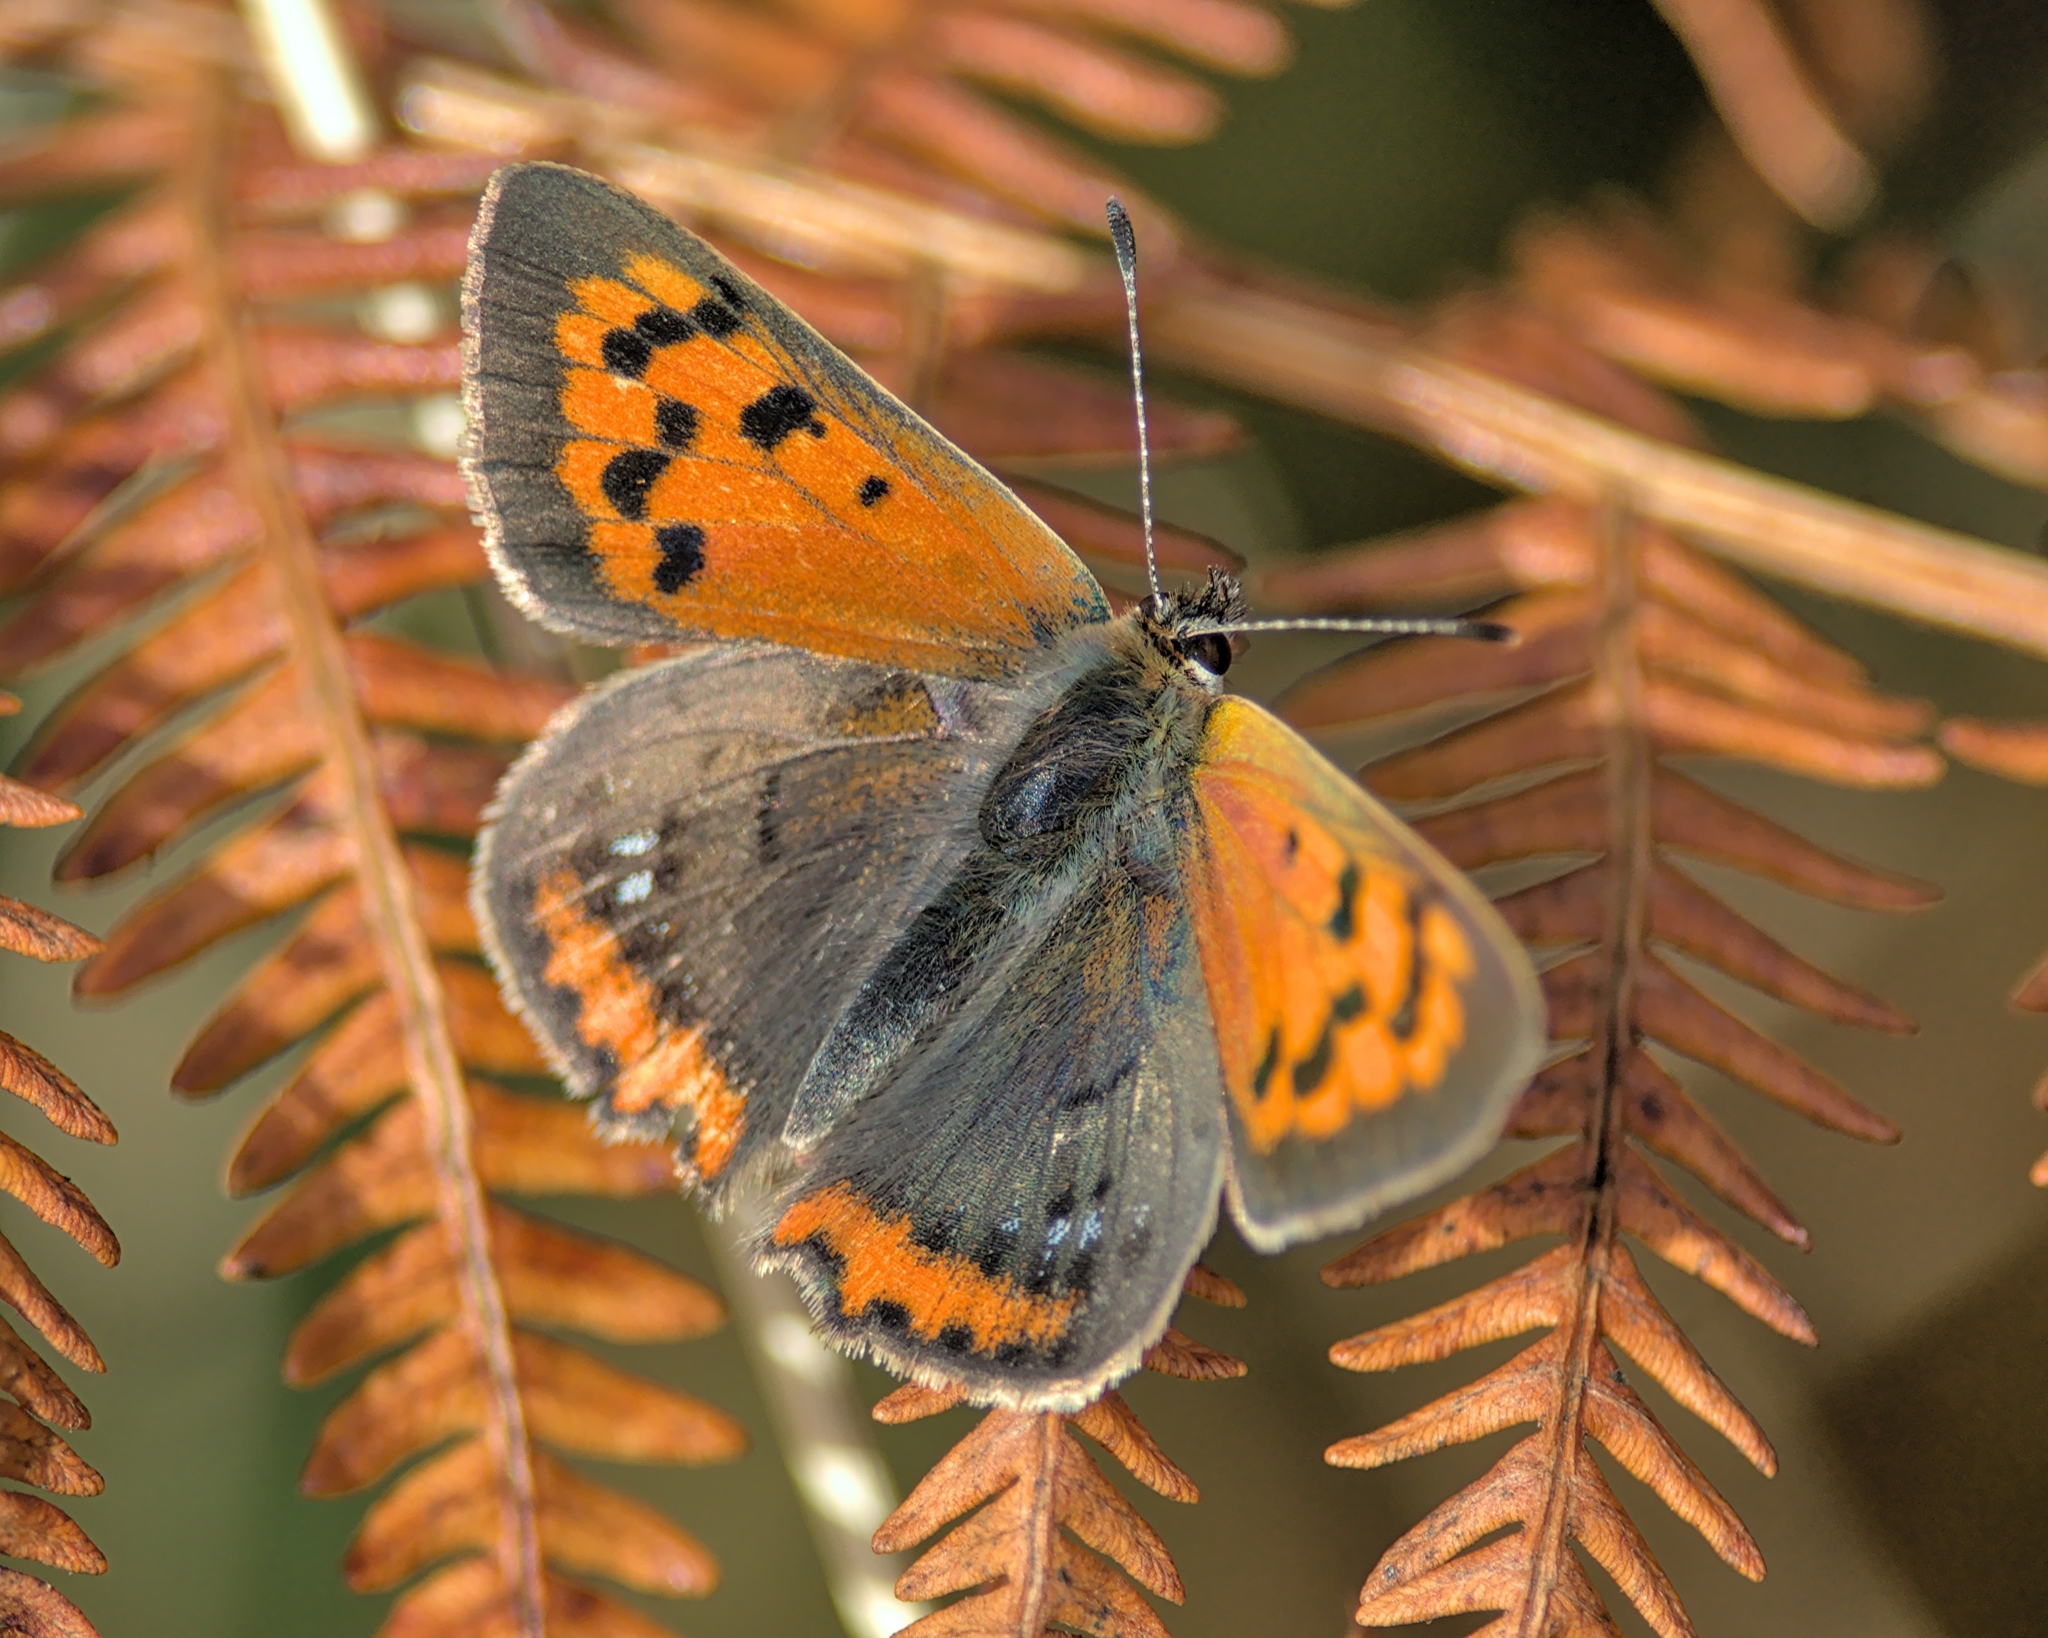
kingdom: Animalia
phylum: Arthropoda
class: Insecta
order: Lepidoptera
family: Lycaenidae
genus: Lycaena
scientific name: Lycaena phlaeas
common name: Small copper
